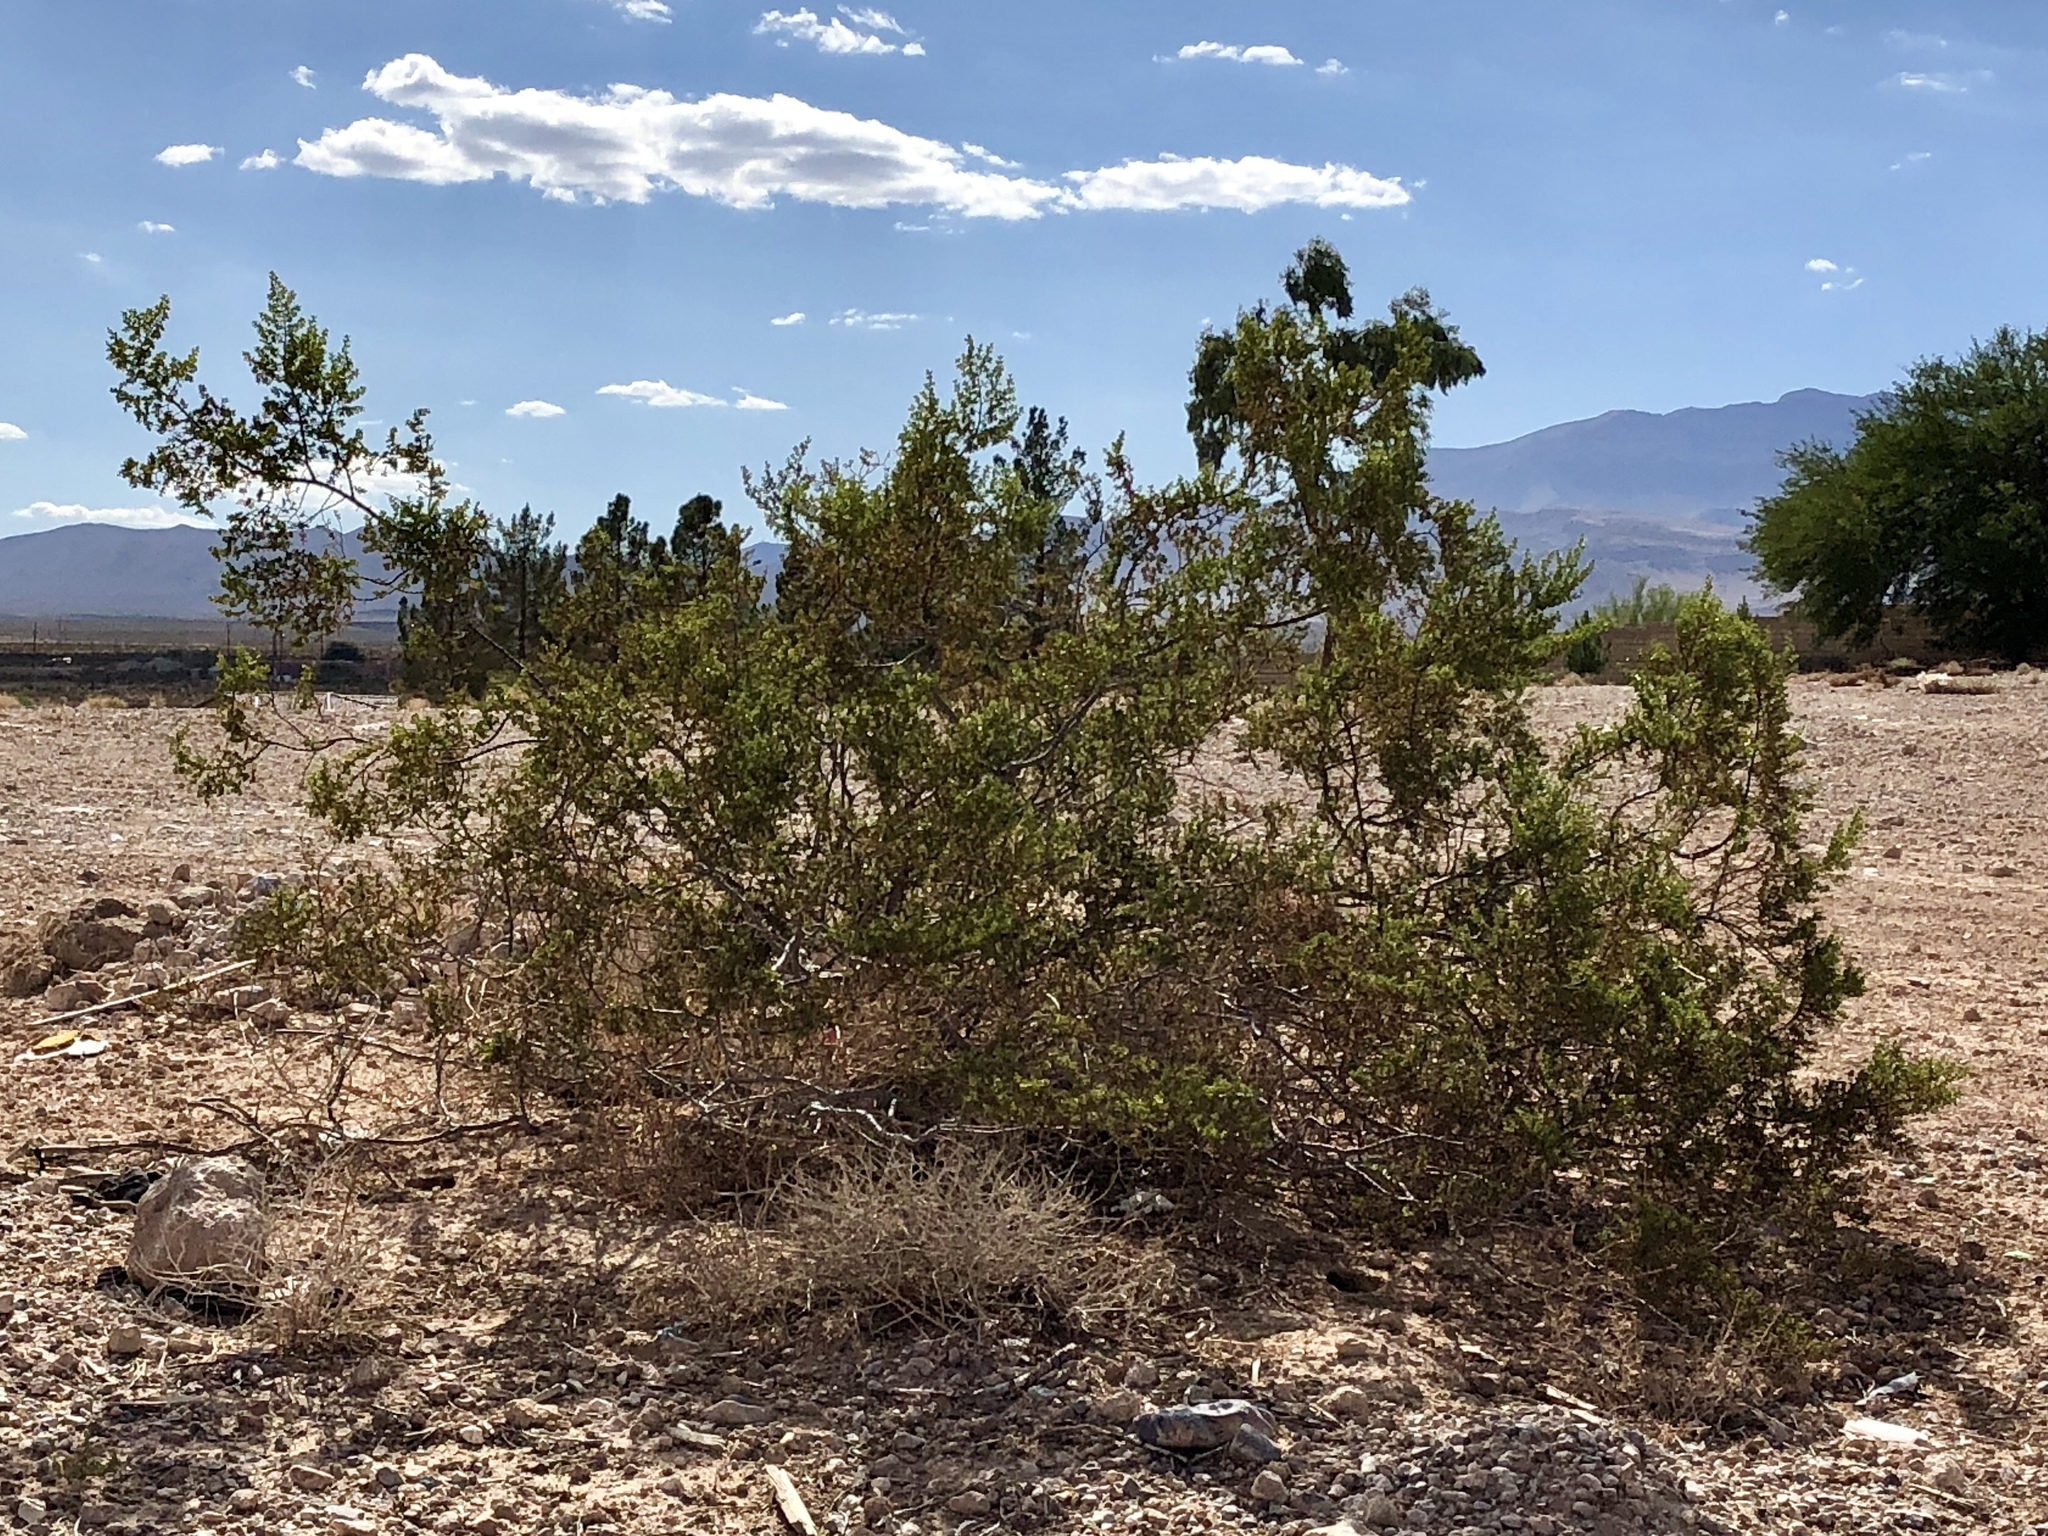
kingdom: Plantae
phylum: Tracheophyta
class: Magnoliopsida
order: Zygophyllales
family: Zygophyllaceae
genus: Larrea
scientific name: Larrea tridentata
